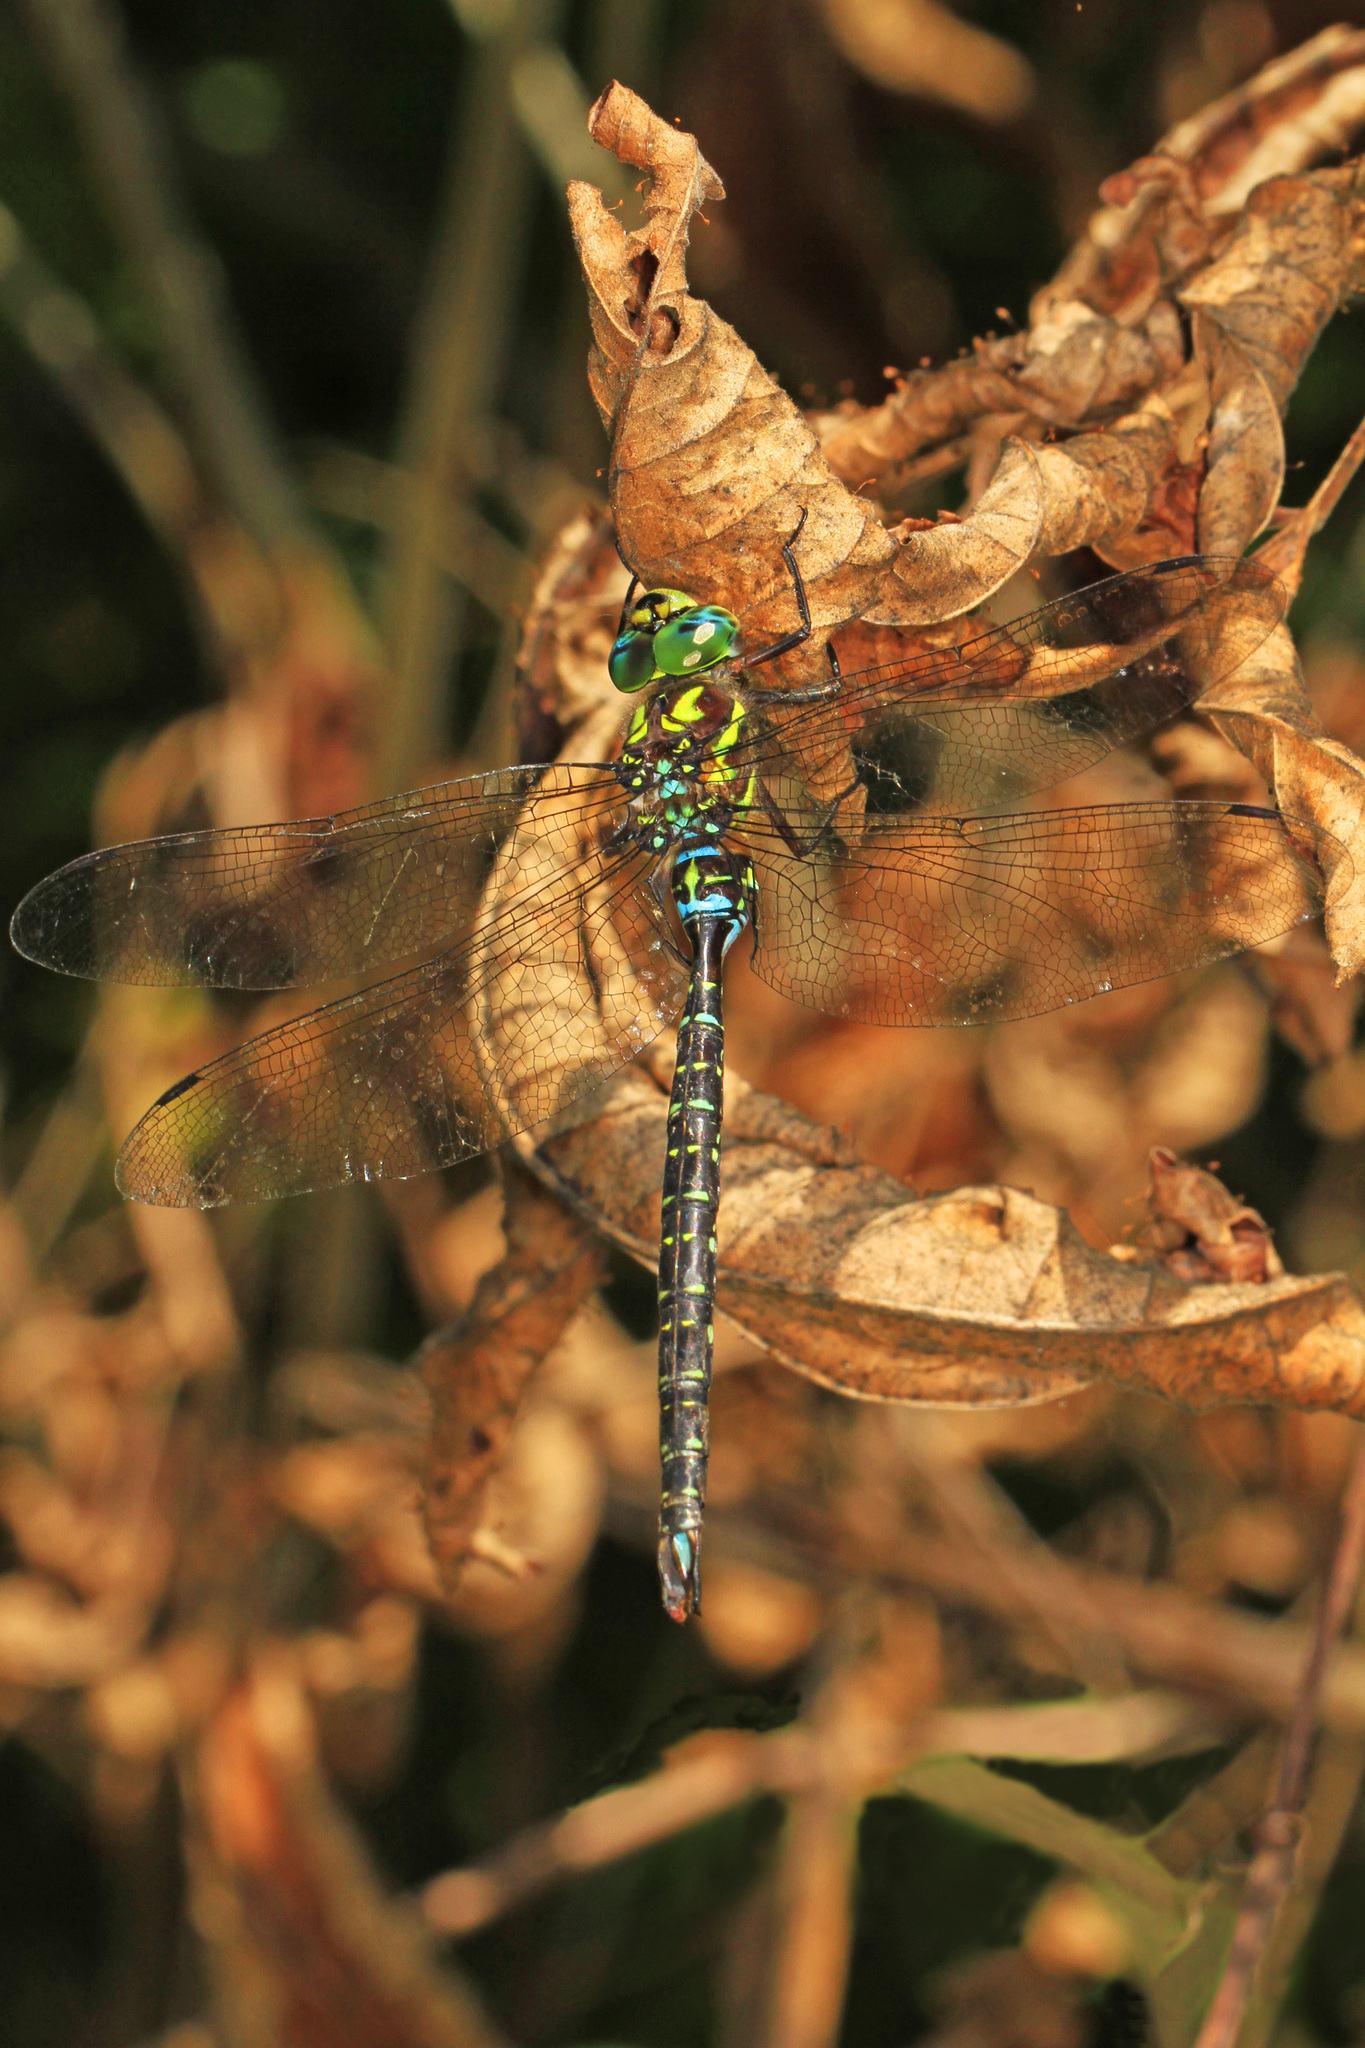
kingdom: Animalia
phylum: Arthropoda
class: Insecta
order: Odonata
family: Aeshnidae
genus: Aeshna
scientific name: Aeshna umbrosa
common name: Shadow darner
